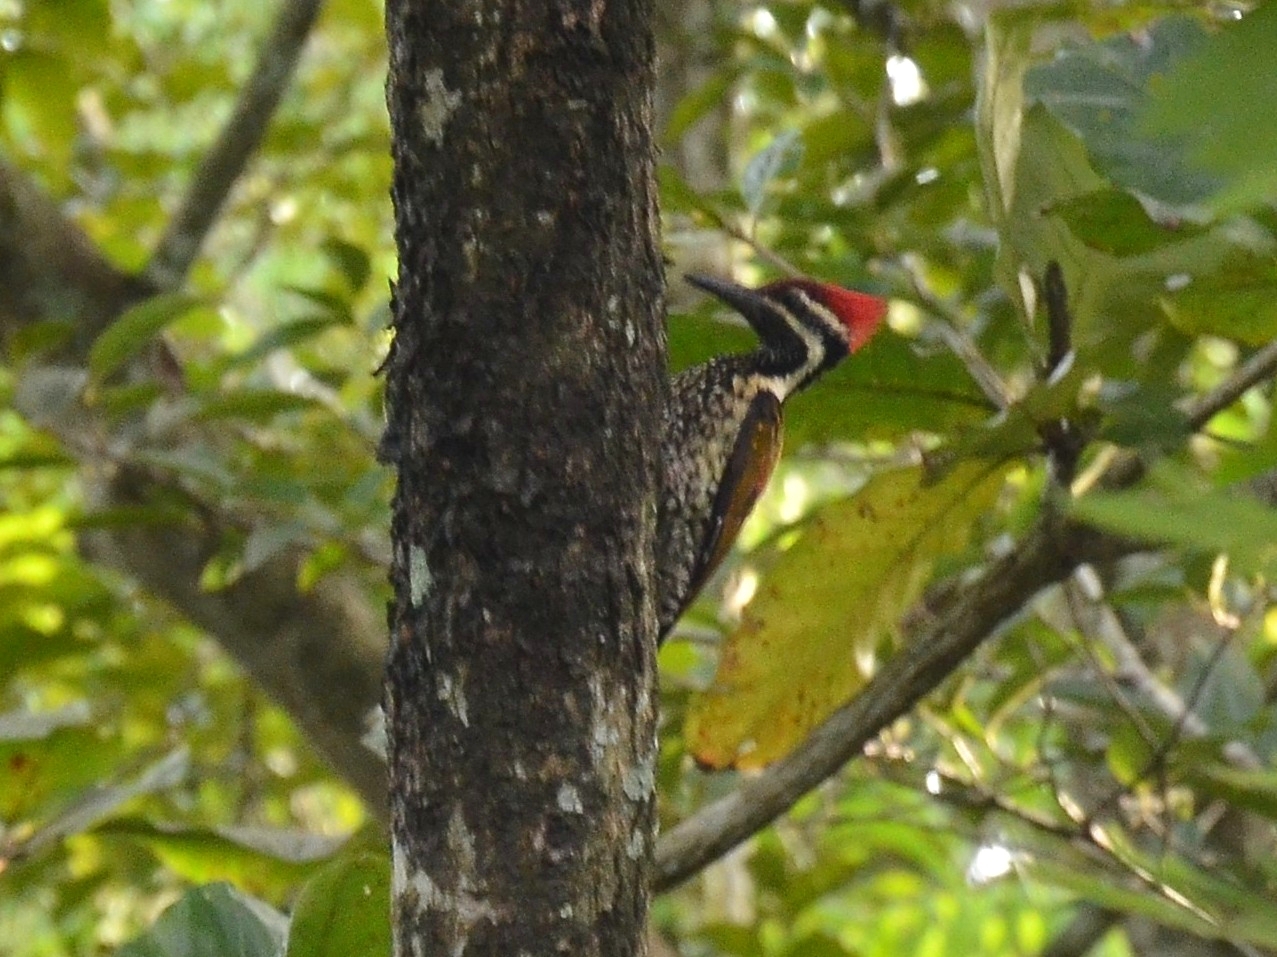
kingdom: Animalia
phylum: Chordata
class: Aves
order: Piciformes
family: Picidae
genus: Dinopium
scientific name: Dinopium benghalense
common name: Black-rumped flameback
